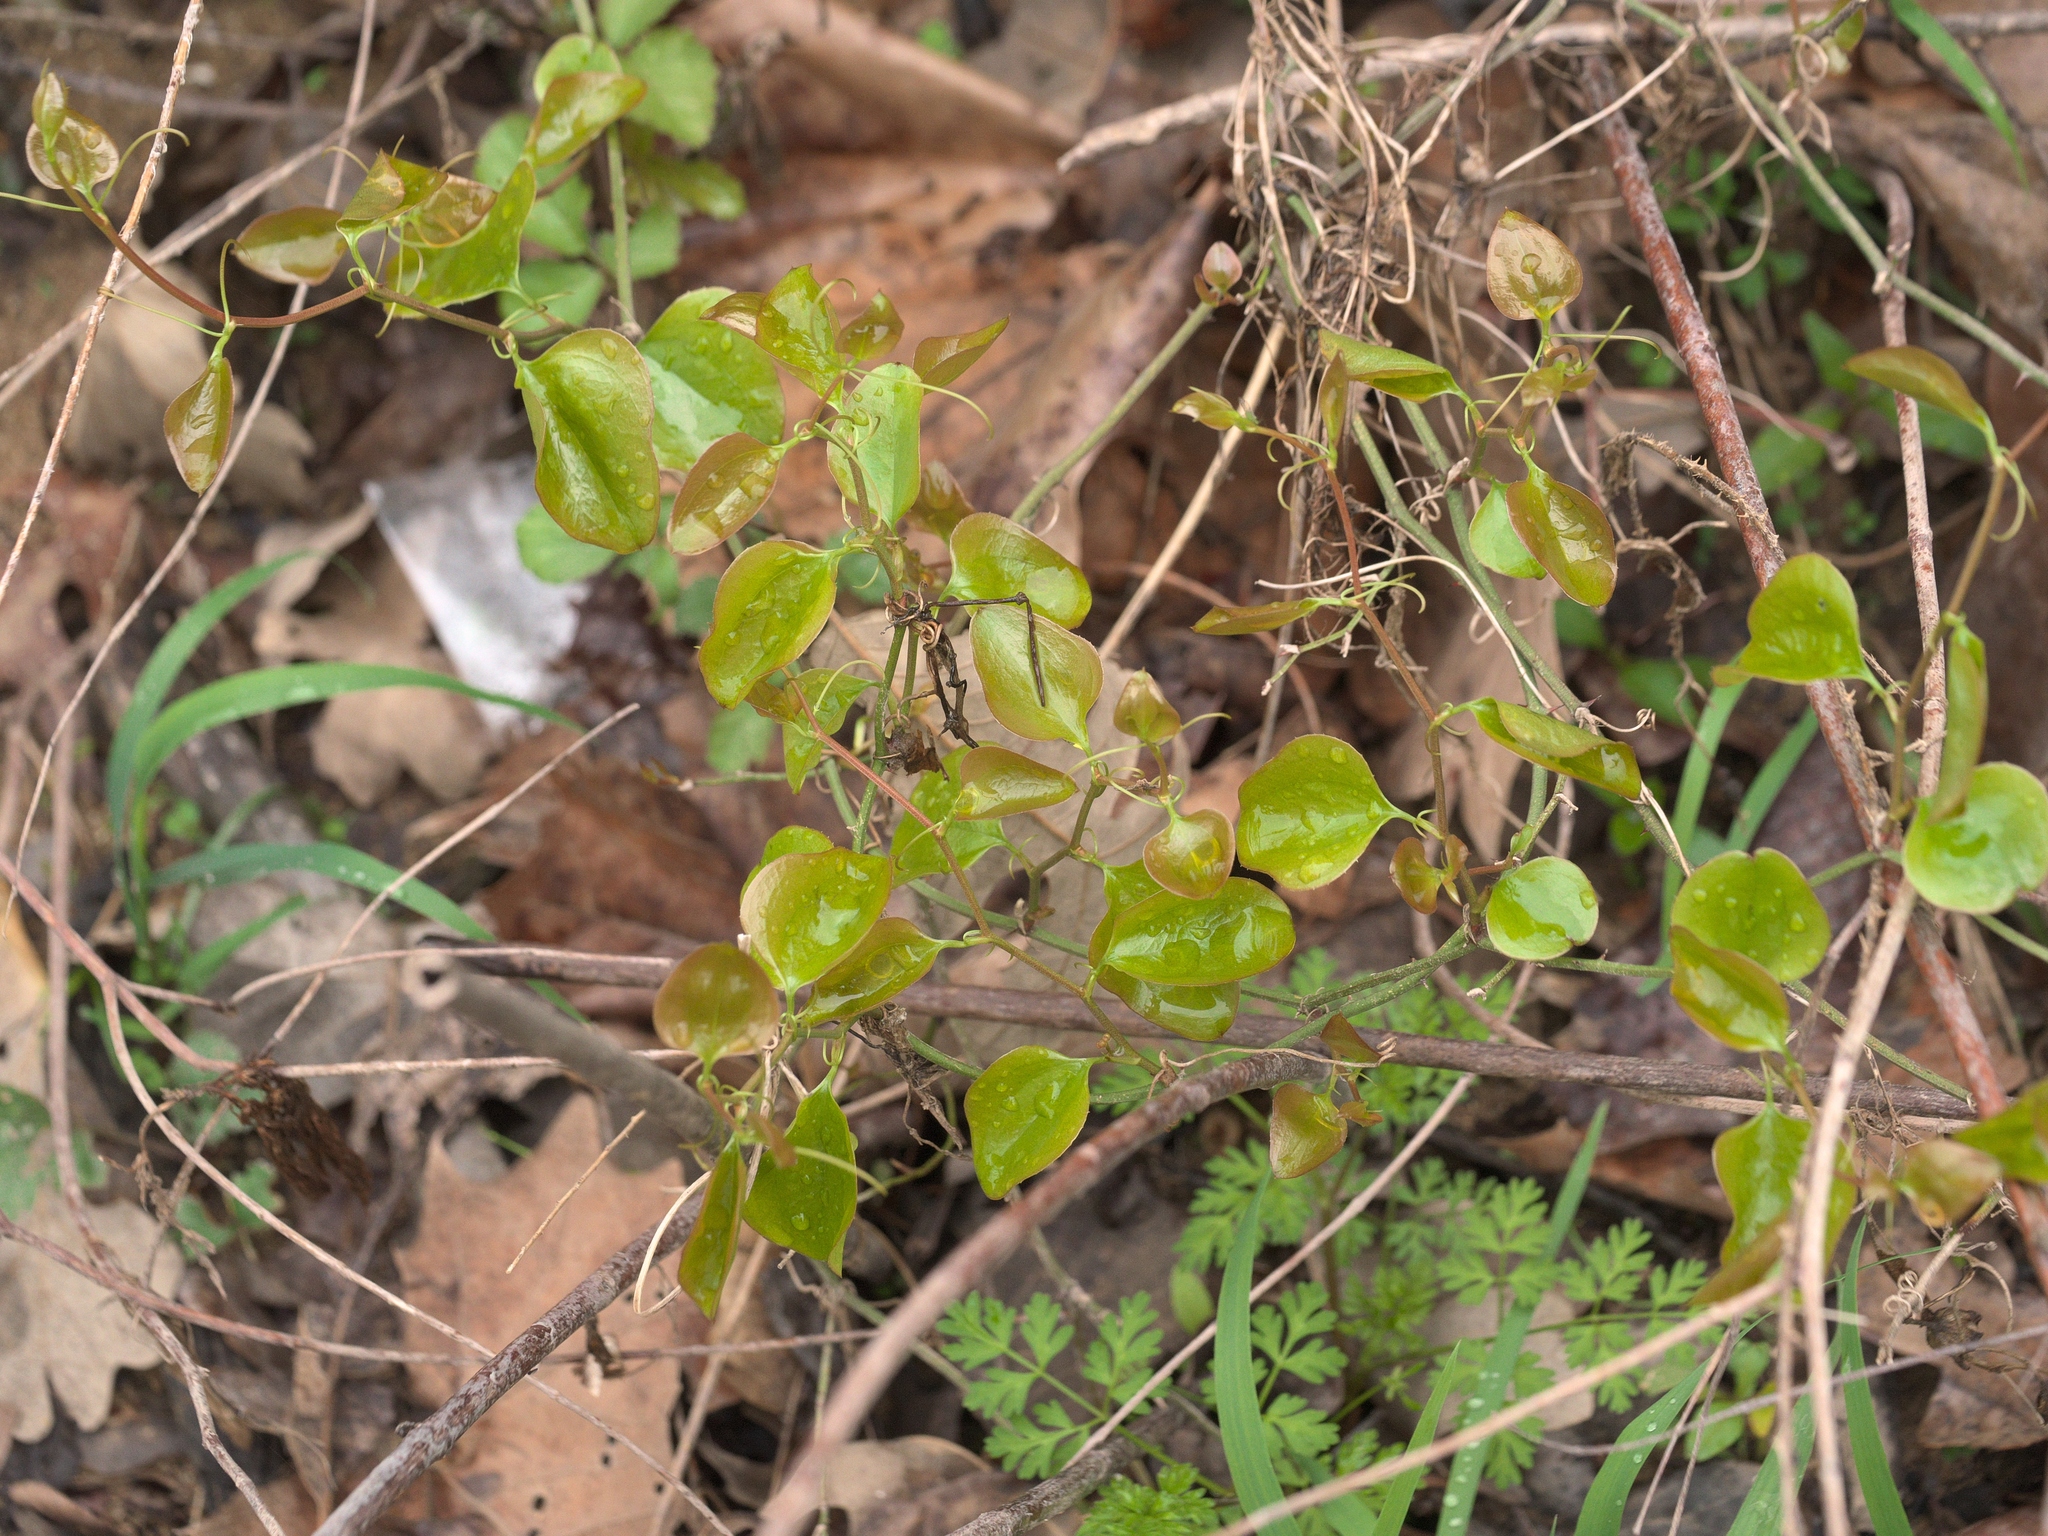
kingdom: Plantae
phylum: Tracheophyta
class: Liliopsida
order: Liliales
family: Smilacaceae
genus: Smilax
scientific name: Smilax bona-nox
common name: Catbrier
